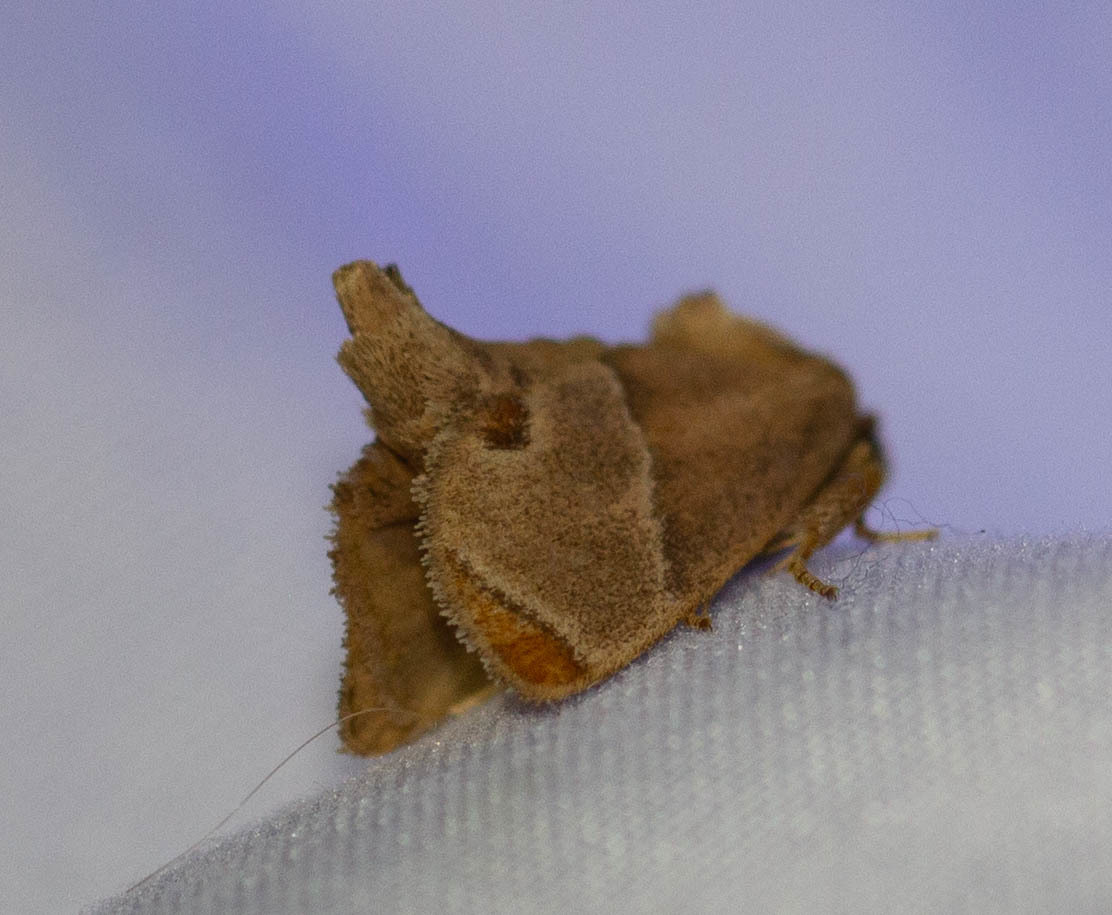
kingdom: Animalia
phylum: Arthropoda
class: Insecta
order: Lepidoptera
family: Limacodidae
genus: Apoda
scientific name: Apoda biguttata
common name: Shagreened slug moth
